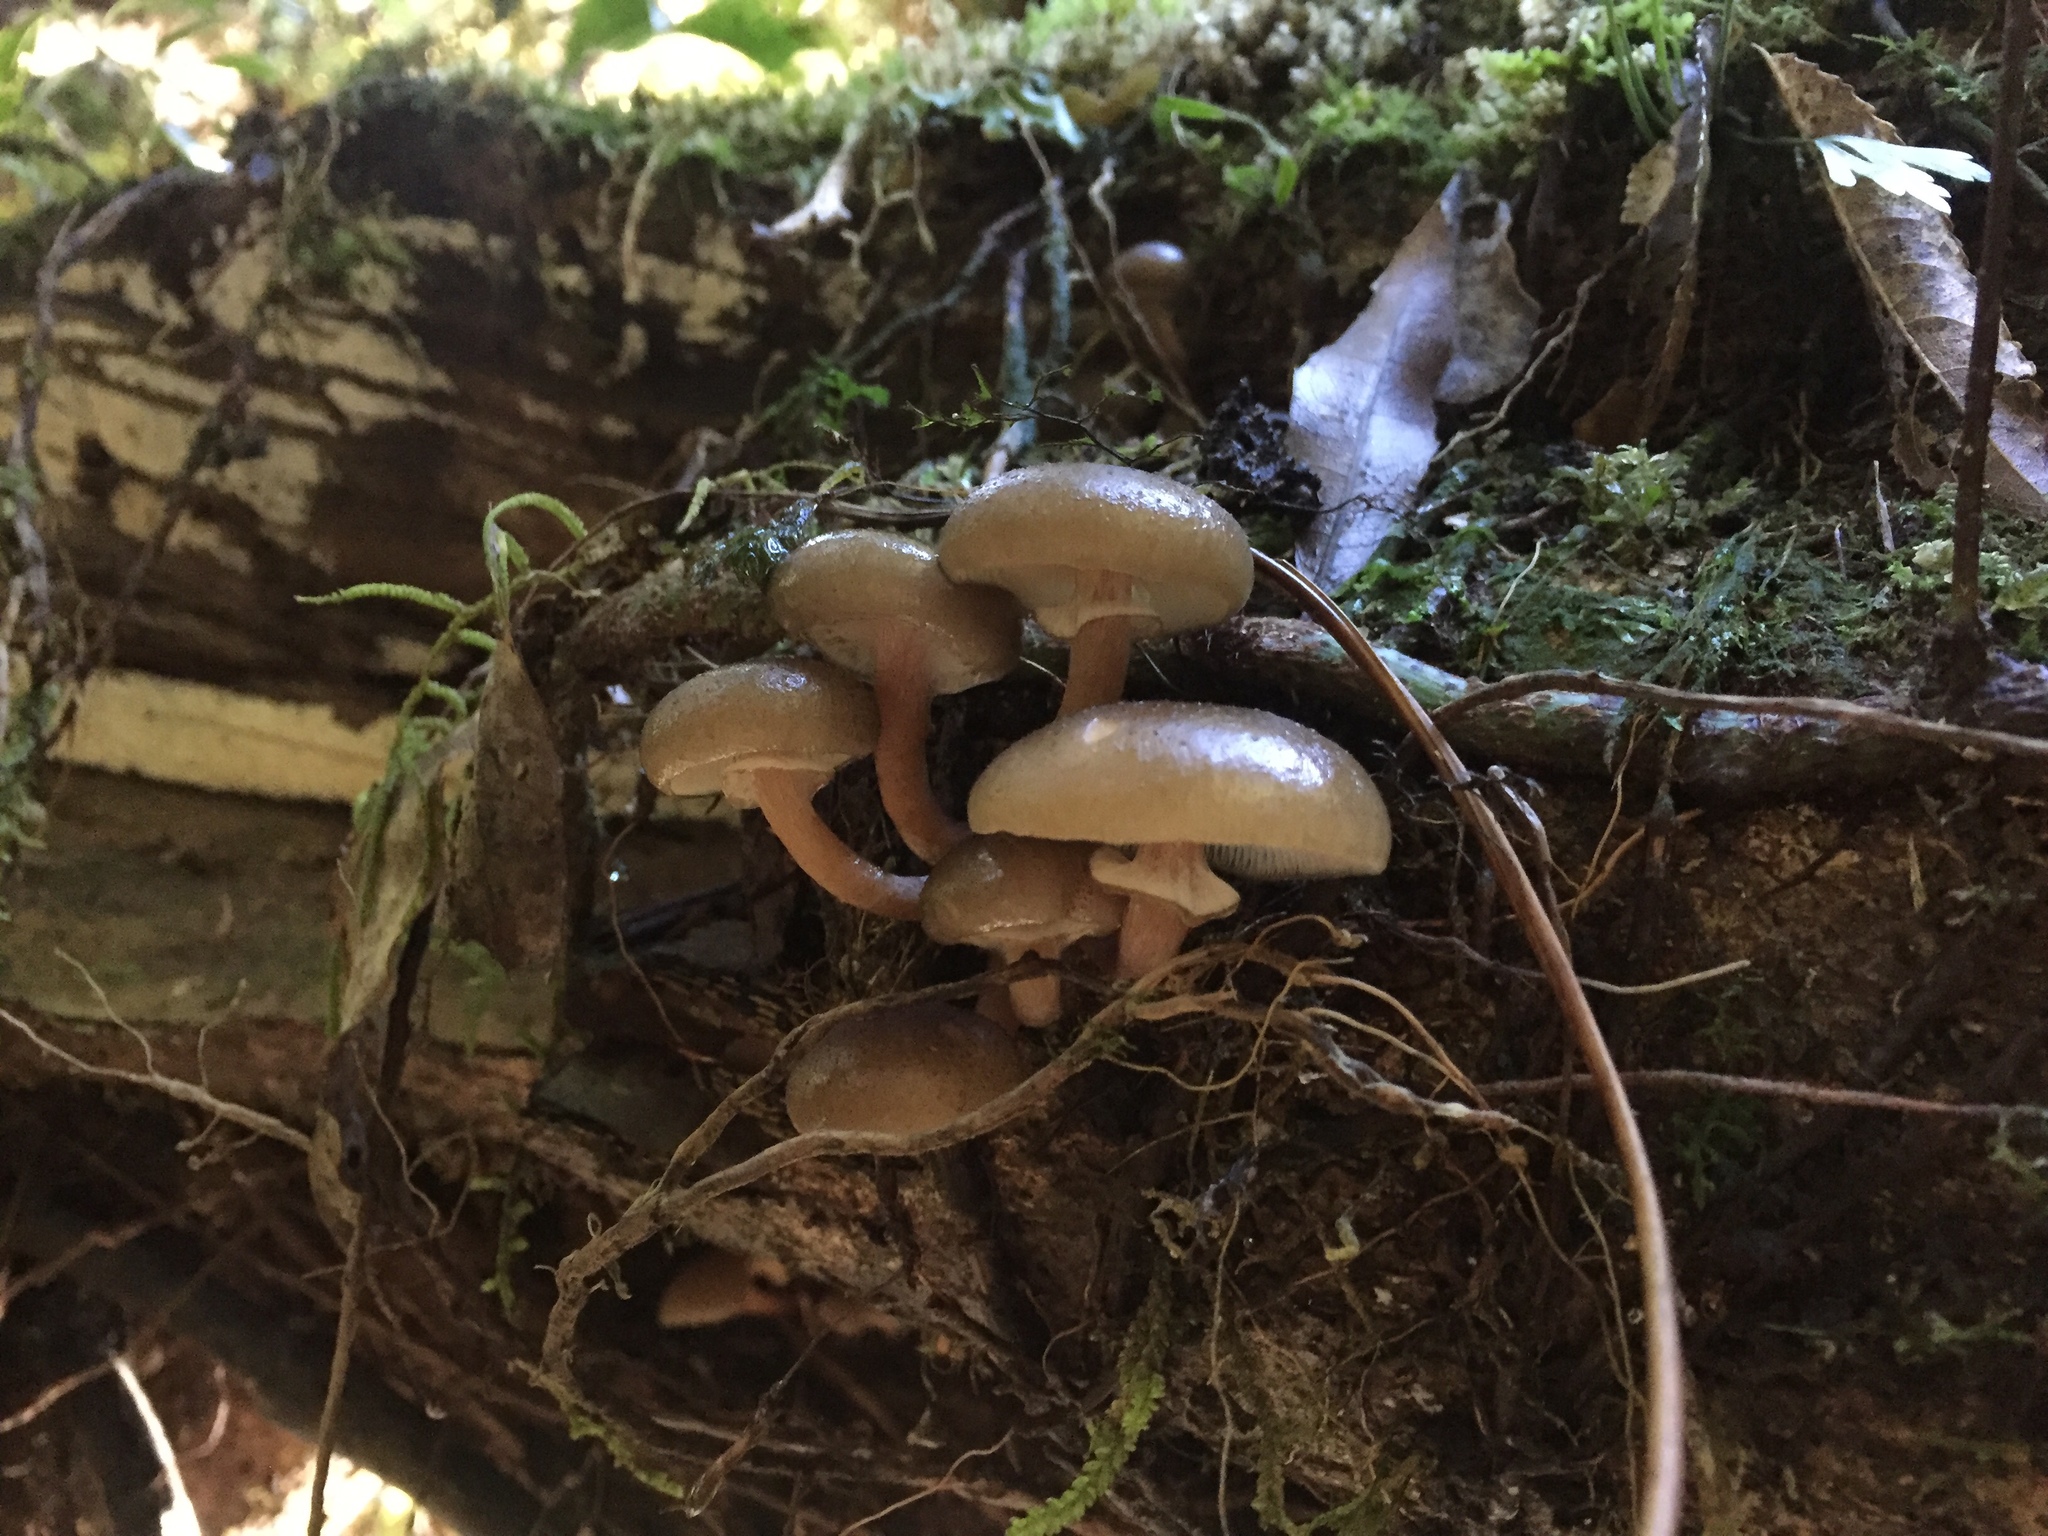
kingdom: Fungi
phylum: Basidiomycota
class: Agaricomycetes
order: Agaricales
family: Physalacriaceae
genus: Armillaria
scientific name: Armillaria novae-zelandiae
